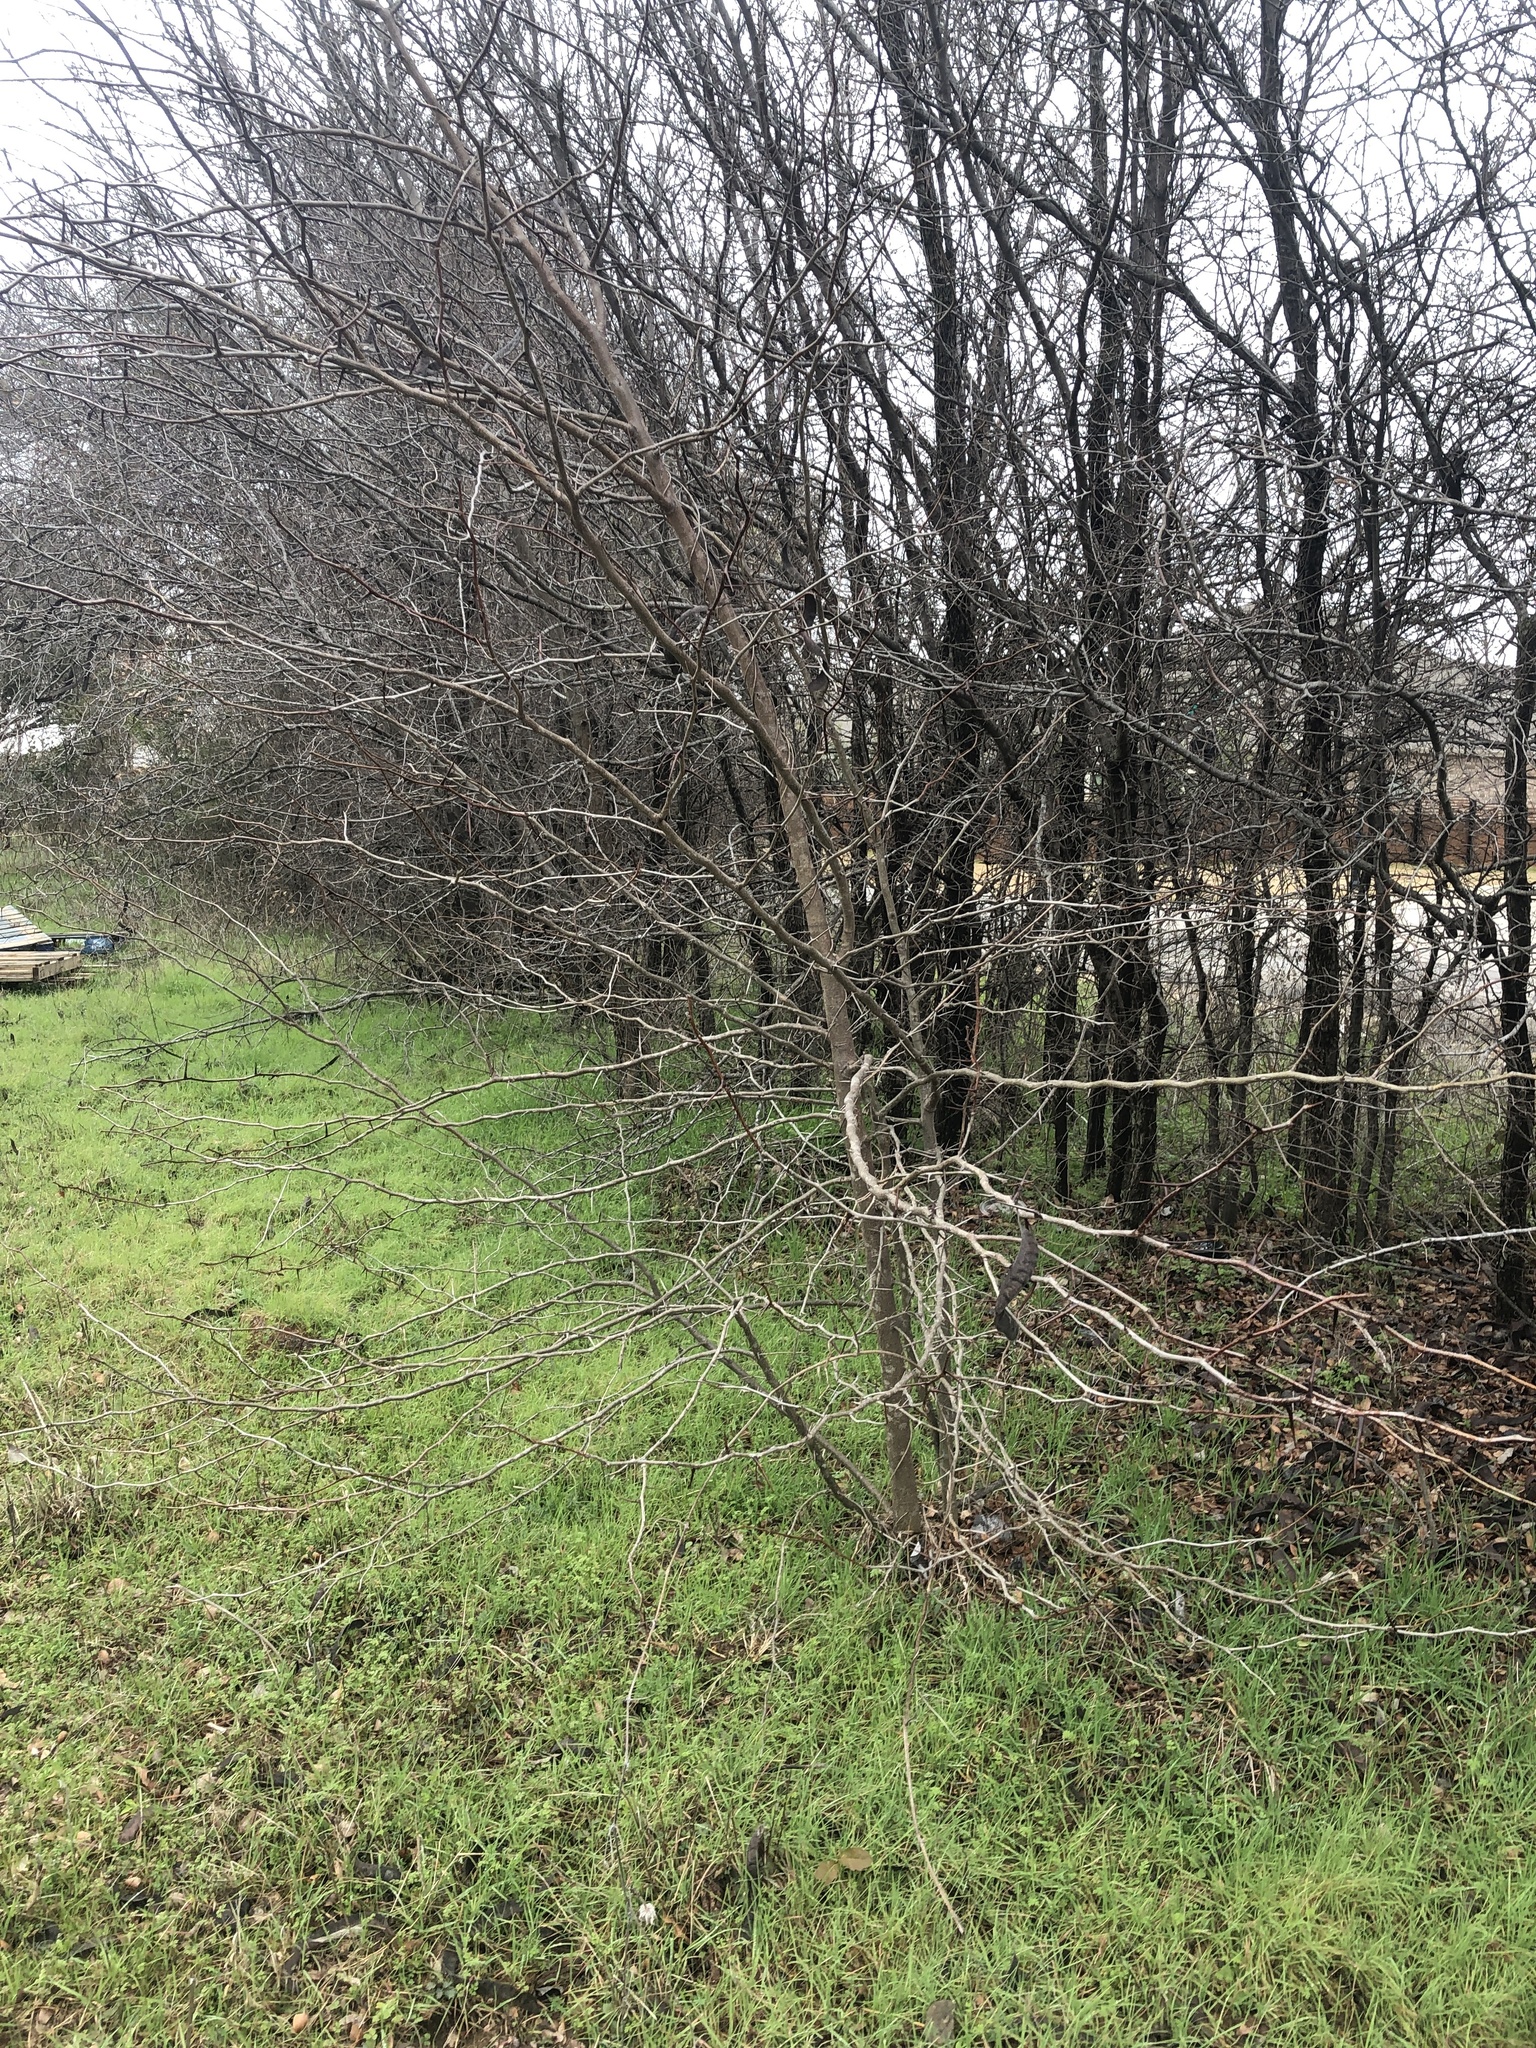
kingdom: Plantae
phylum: Tracheophyta
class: Magnoliopsida
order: Fabales
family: Fabaceae
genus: Gleditsia
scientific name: Gleditsia triacanthos
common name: Common honeylocust
